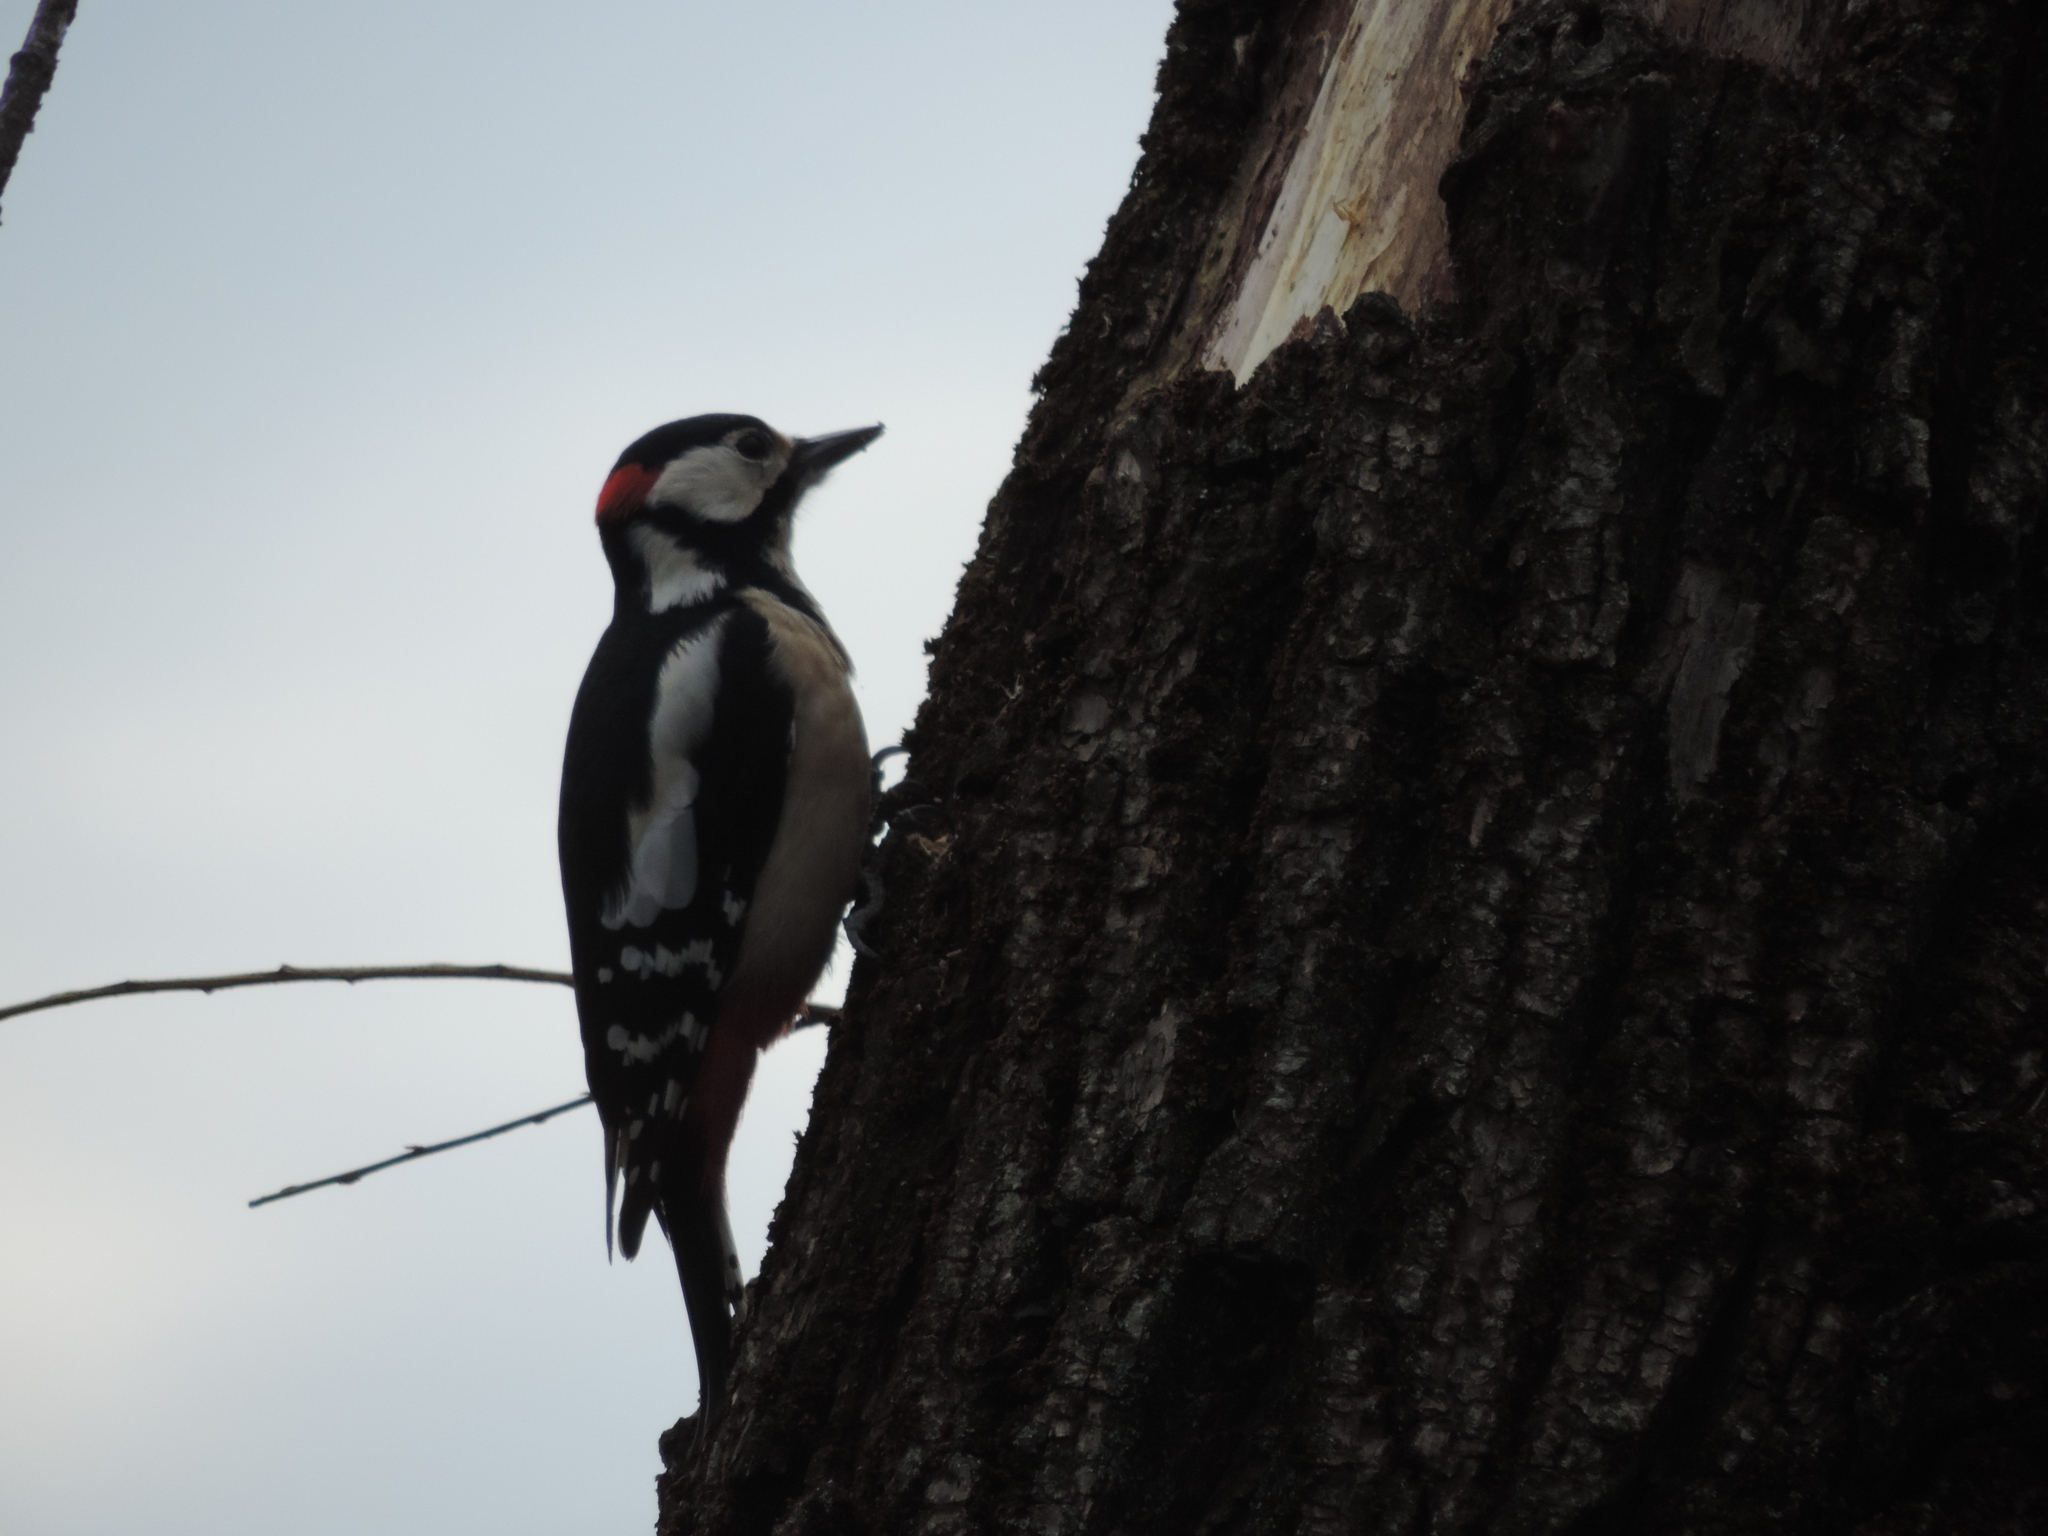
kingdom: Animalia
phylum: Chordata
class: Aves
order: Piciformes
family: Picidae
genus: Dendrocopos
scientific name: Dendrocopos major
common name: Great spotted woodpecker
